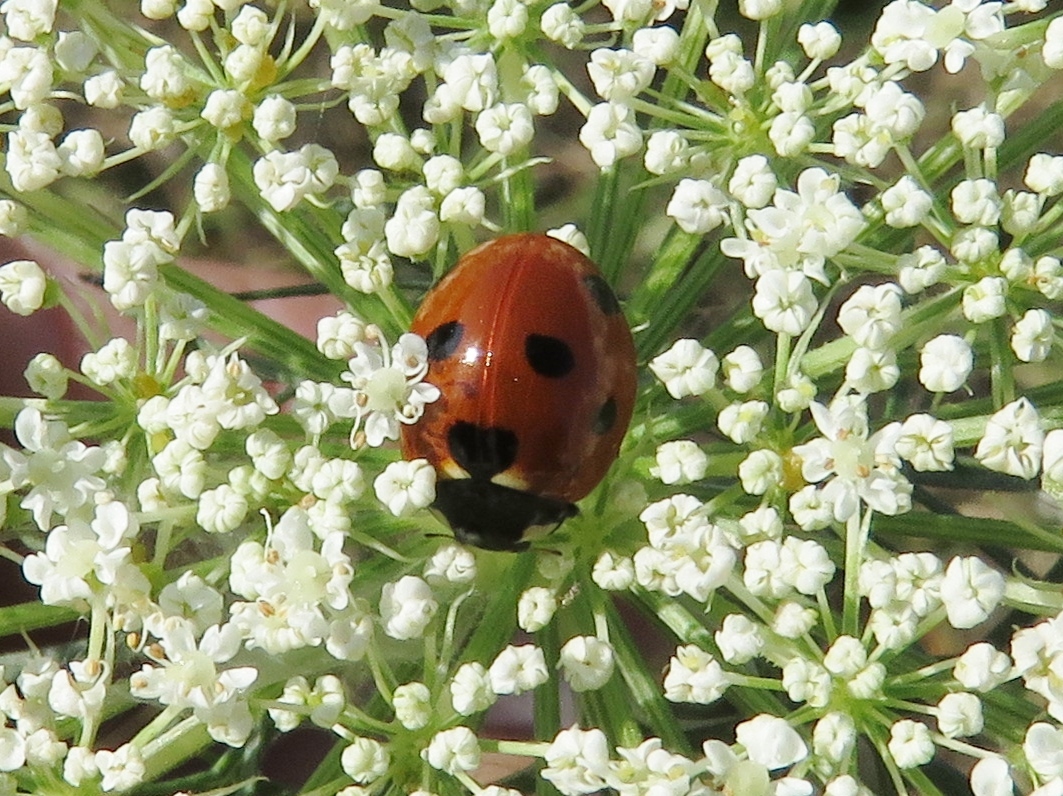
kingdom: Animalia
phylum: Arthropoda
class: Insecta
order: Coleoptera
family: Coccinellidae
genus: Coccinella
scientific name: Coccinella septempunctata
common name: Sevenspotted lady beetle
